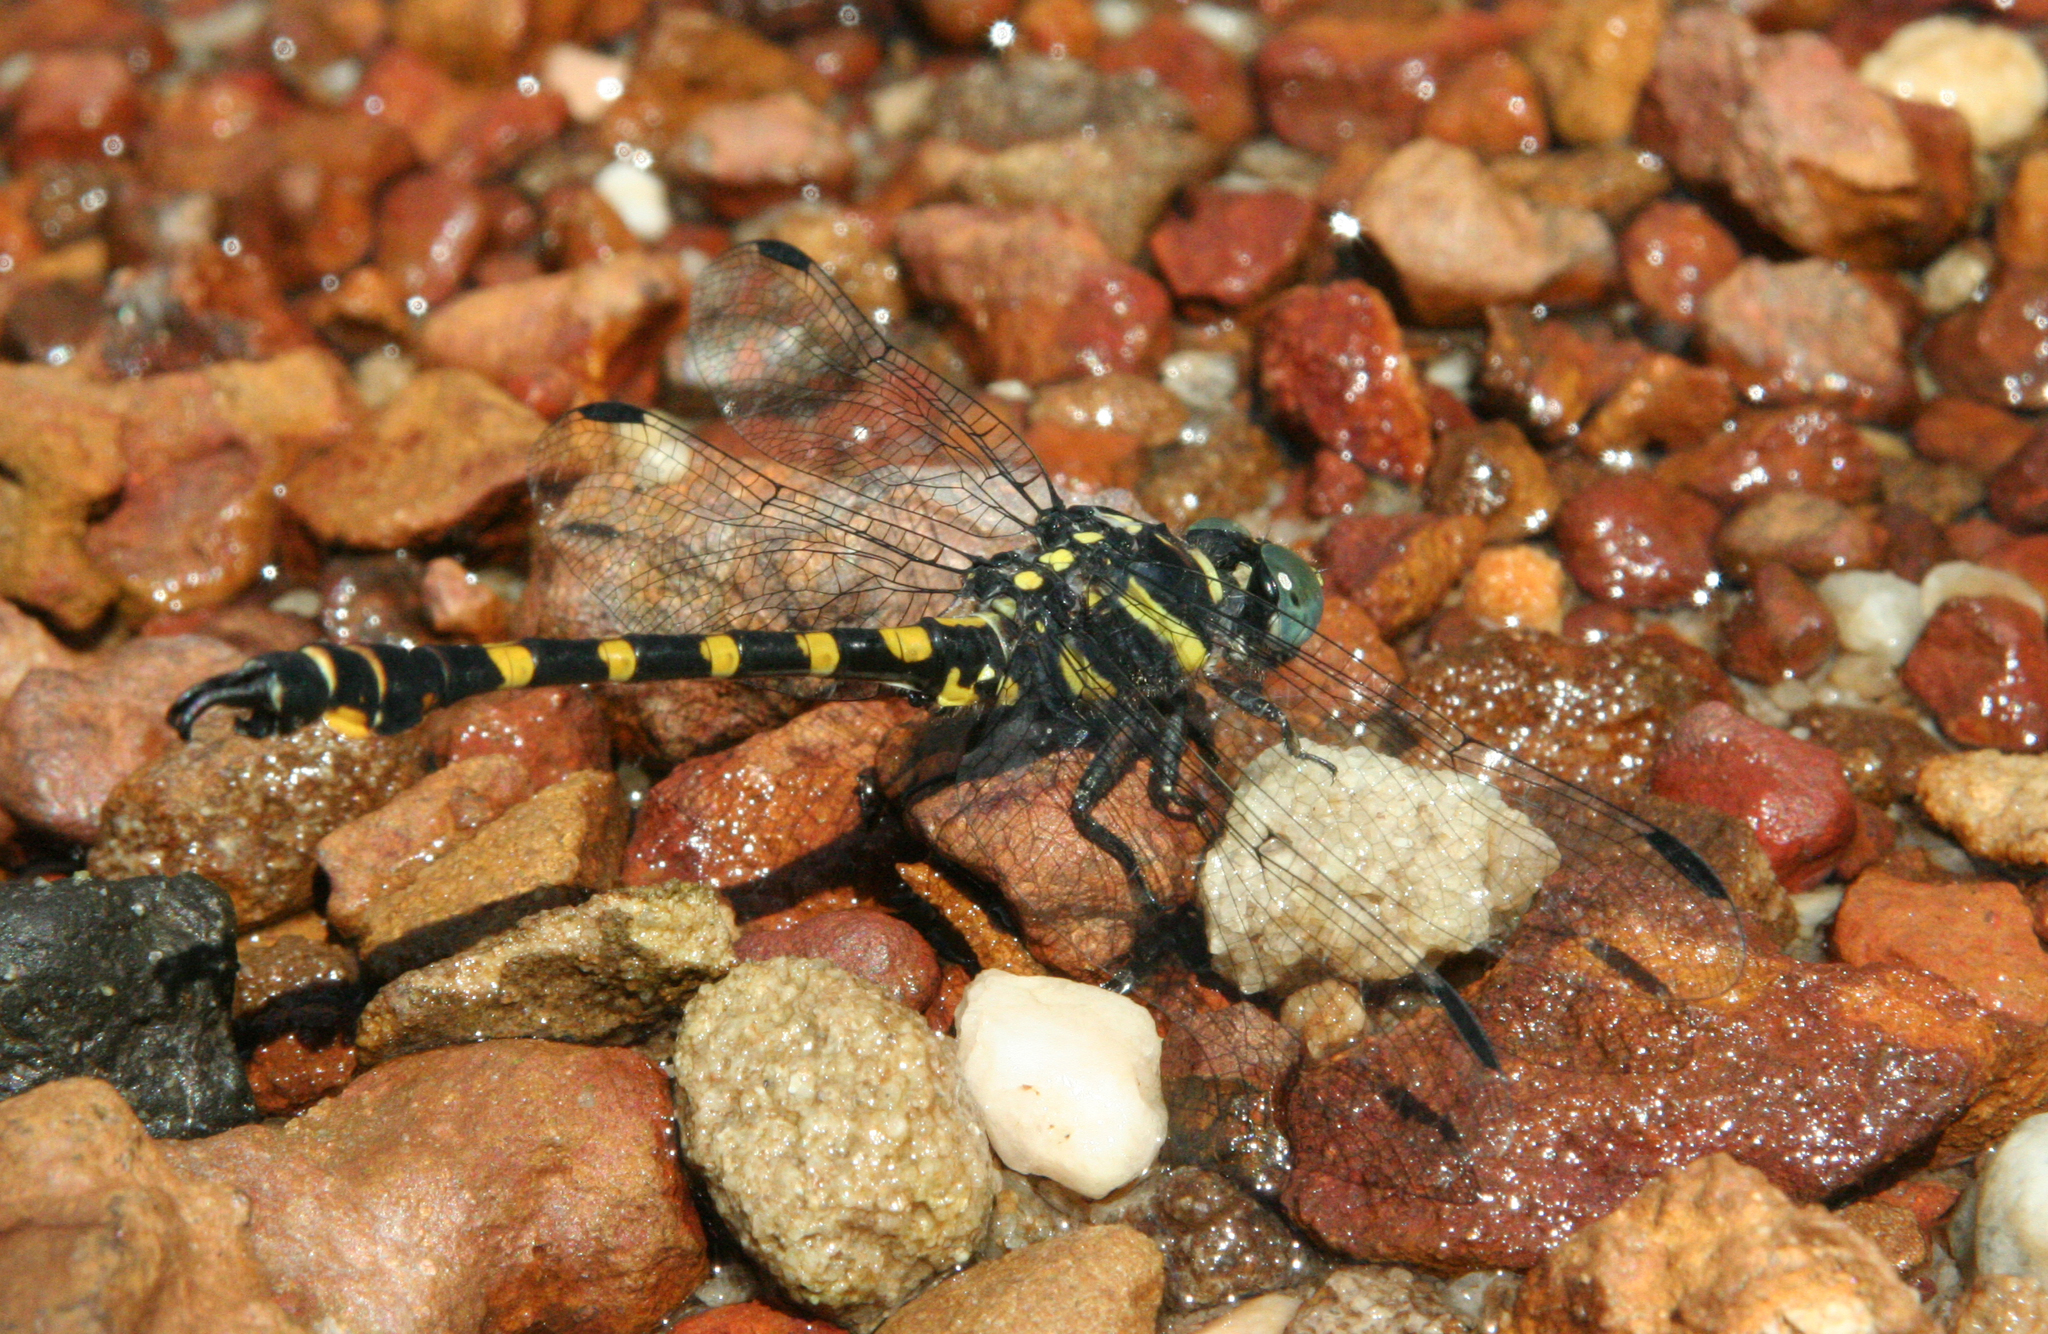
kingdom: Animalia
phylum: Arthropoda
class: Insecta
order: Odonata
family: Gomphidae
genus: Paragomphus
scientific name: Paragomphus capricornis
